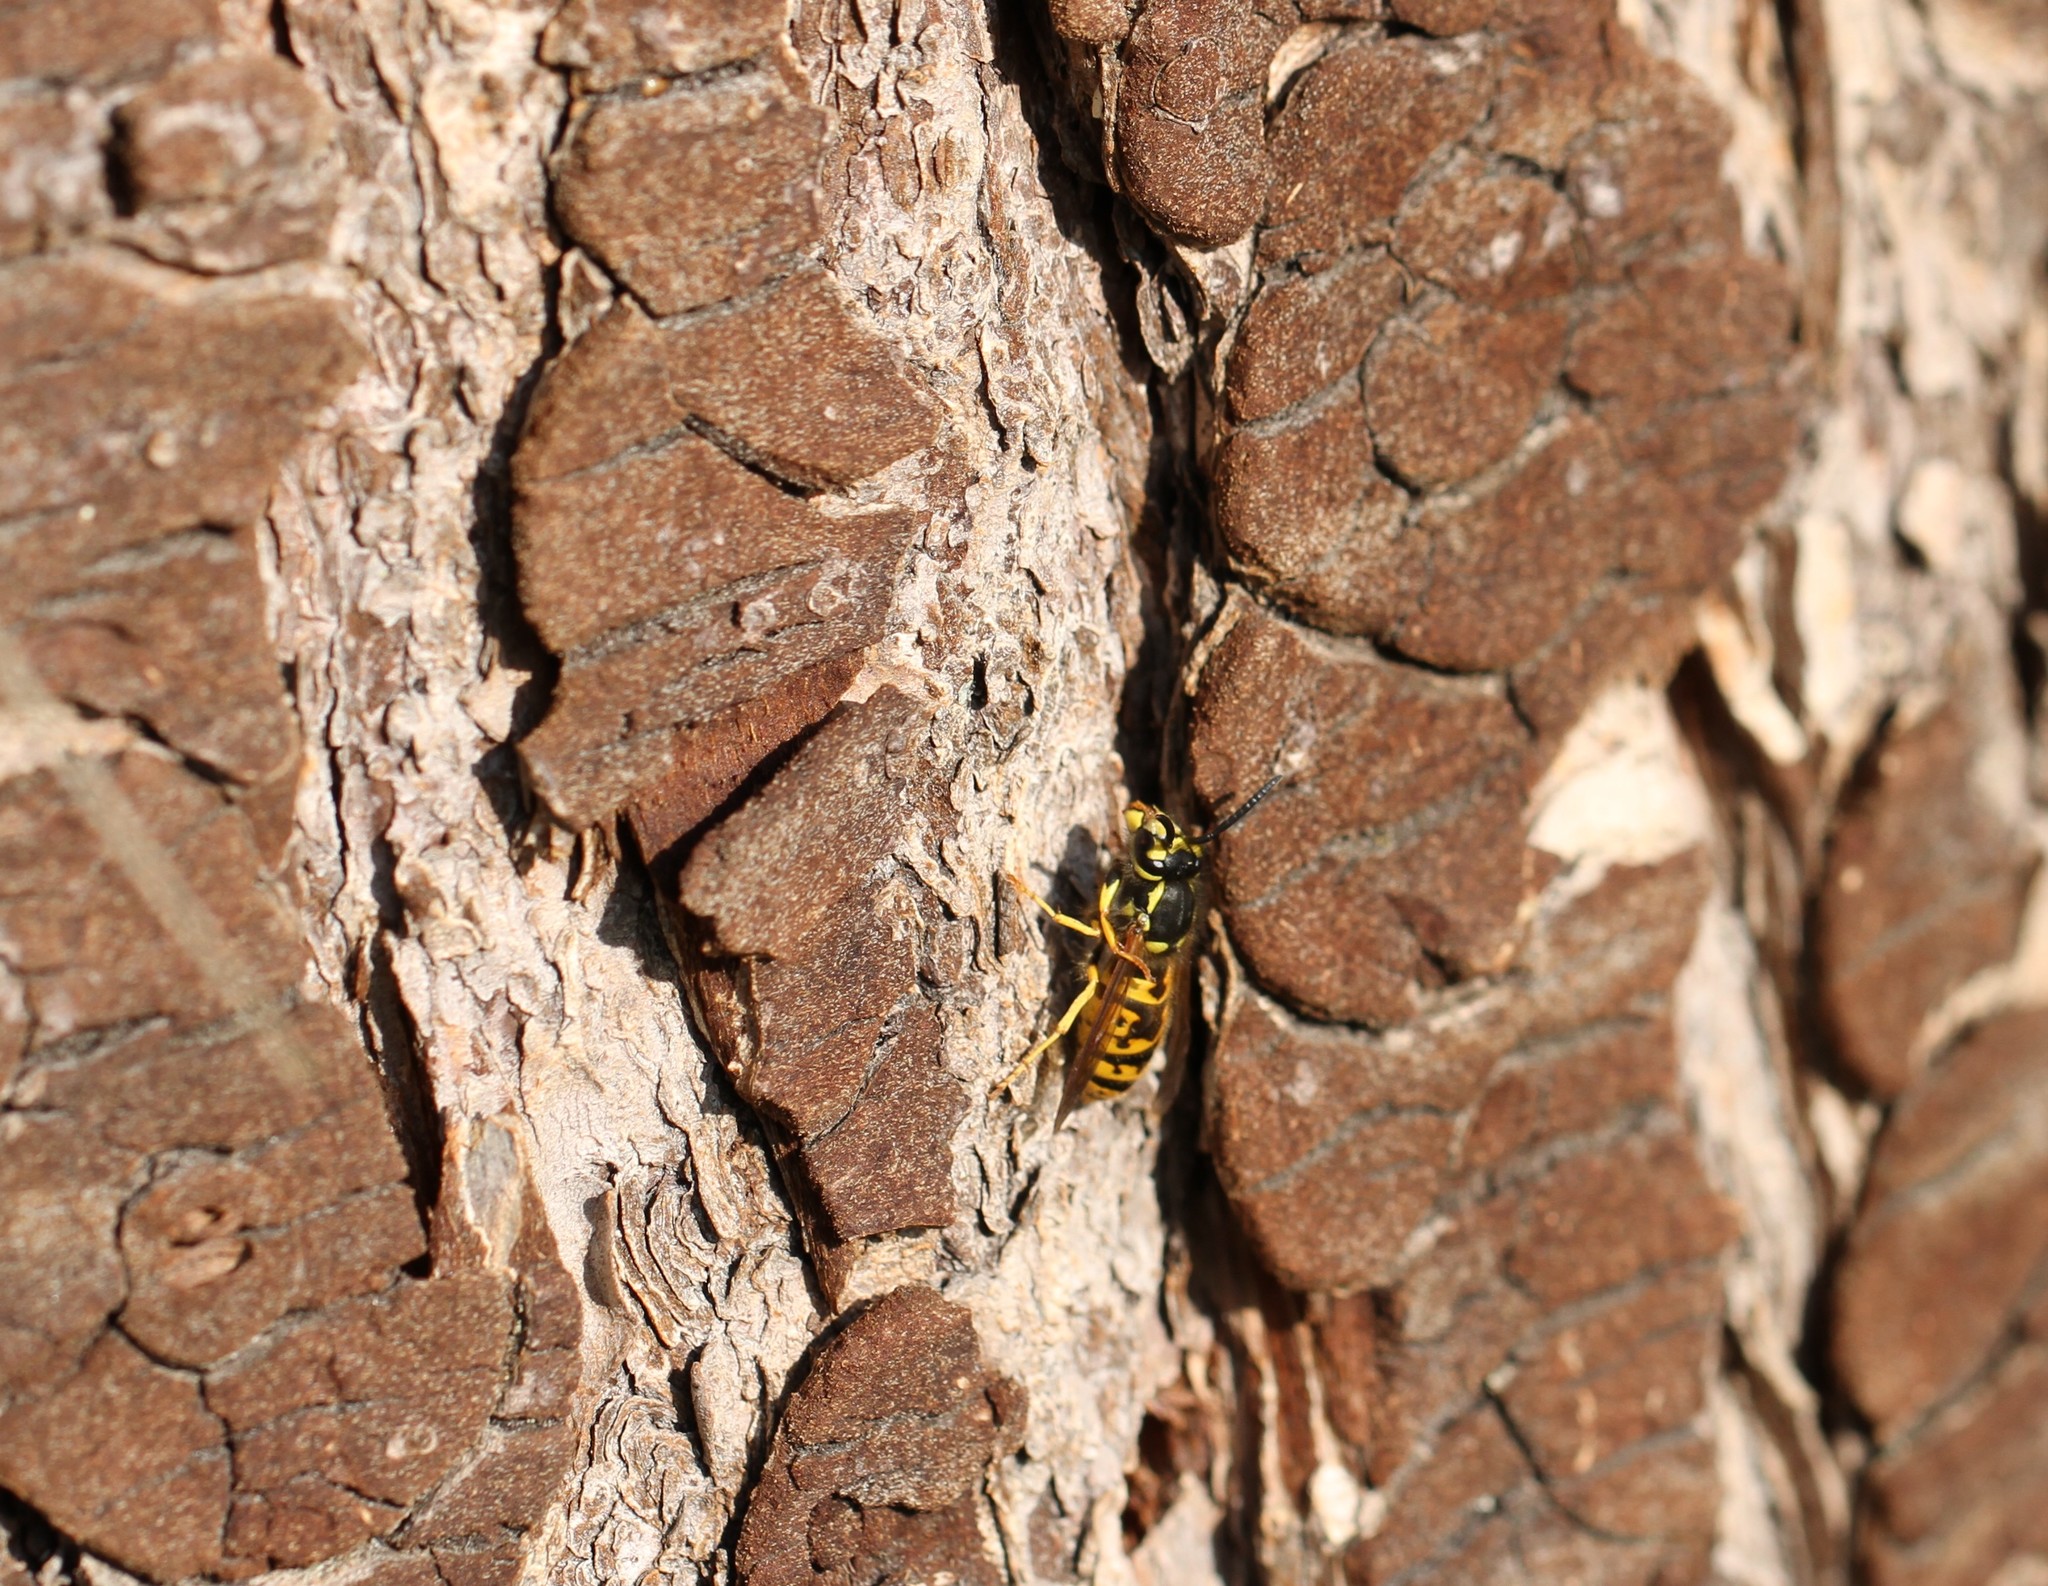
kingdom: Animalia
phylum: Arthropoda
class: Insecta
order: Hymenoptera
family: Vespidae
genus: Vespula
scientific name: Vespula germanica
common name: German wasp
